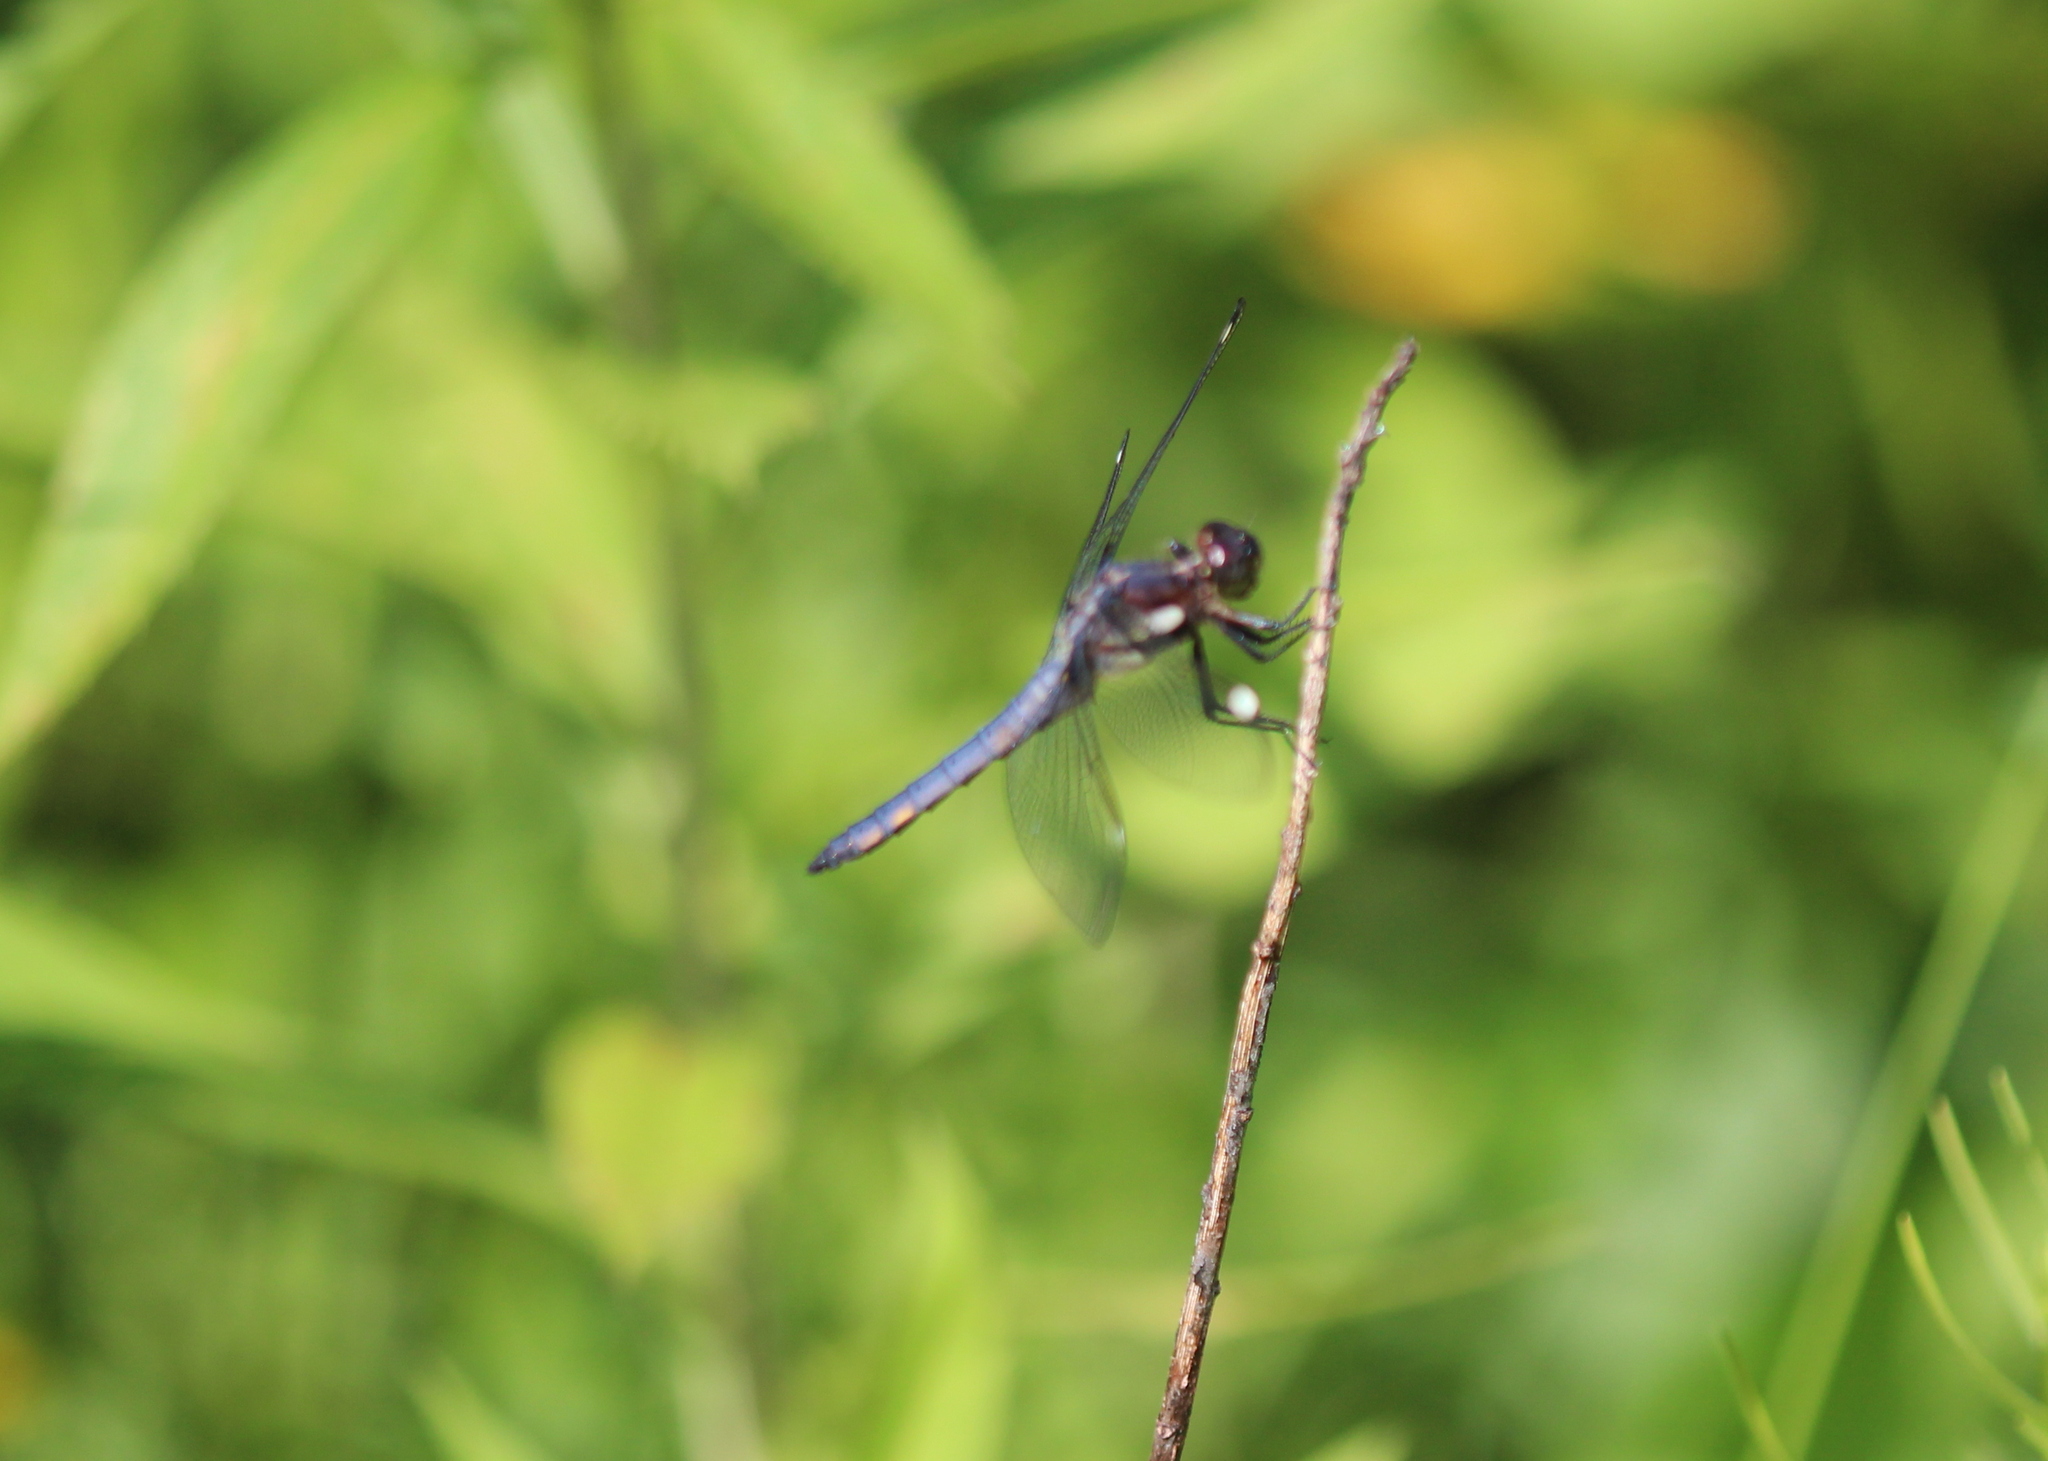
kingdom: Animalia
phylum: Arthropoda
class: Insecta
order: Odonata
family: Libellulidae
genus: Libellula
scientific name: Libellula cyanea
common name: Spangled skimmer
